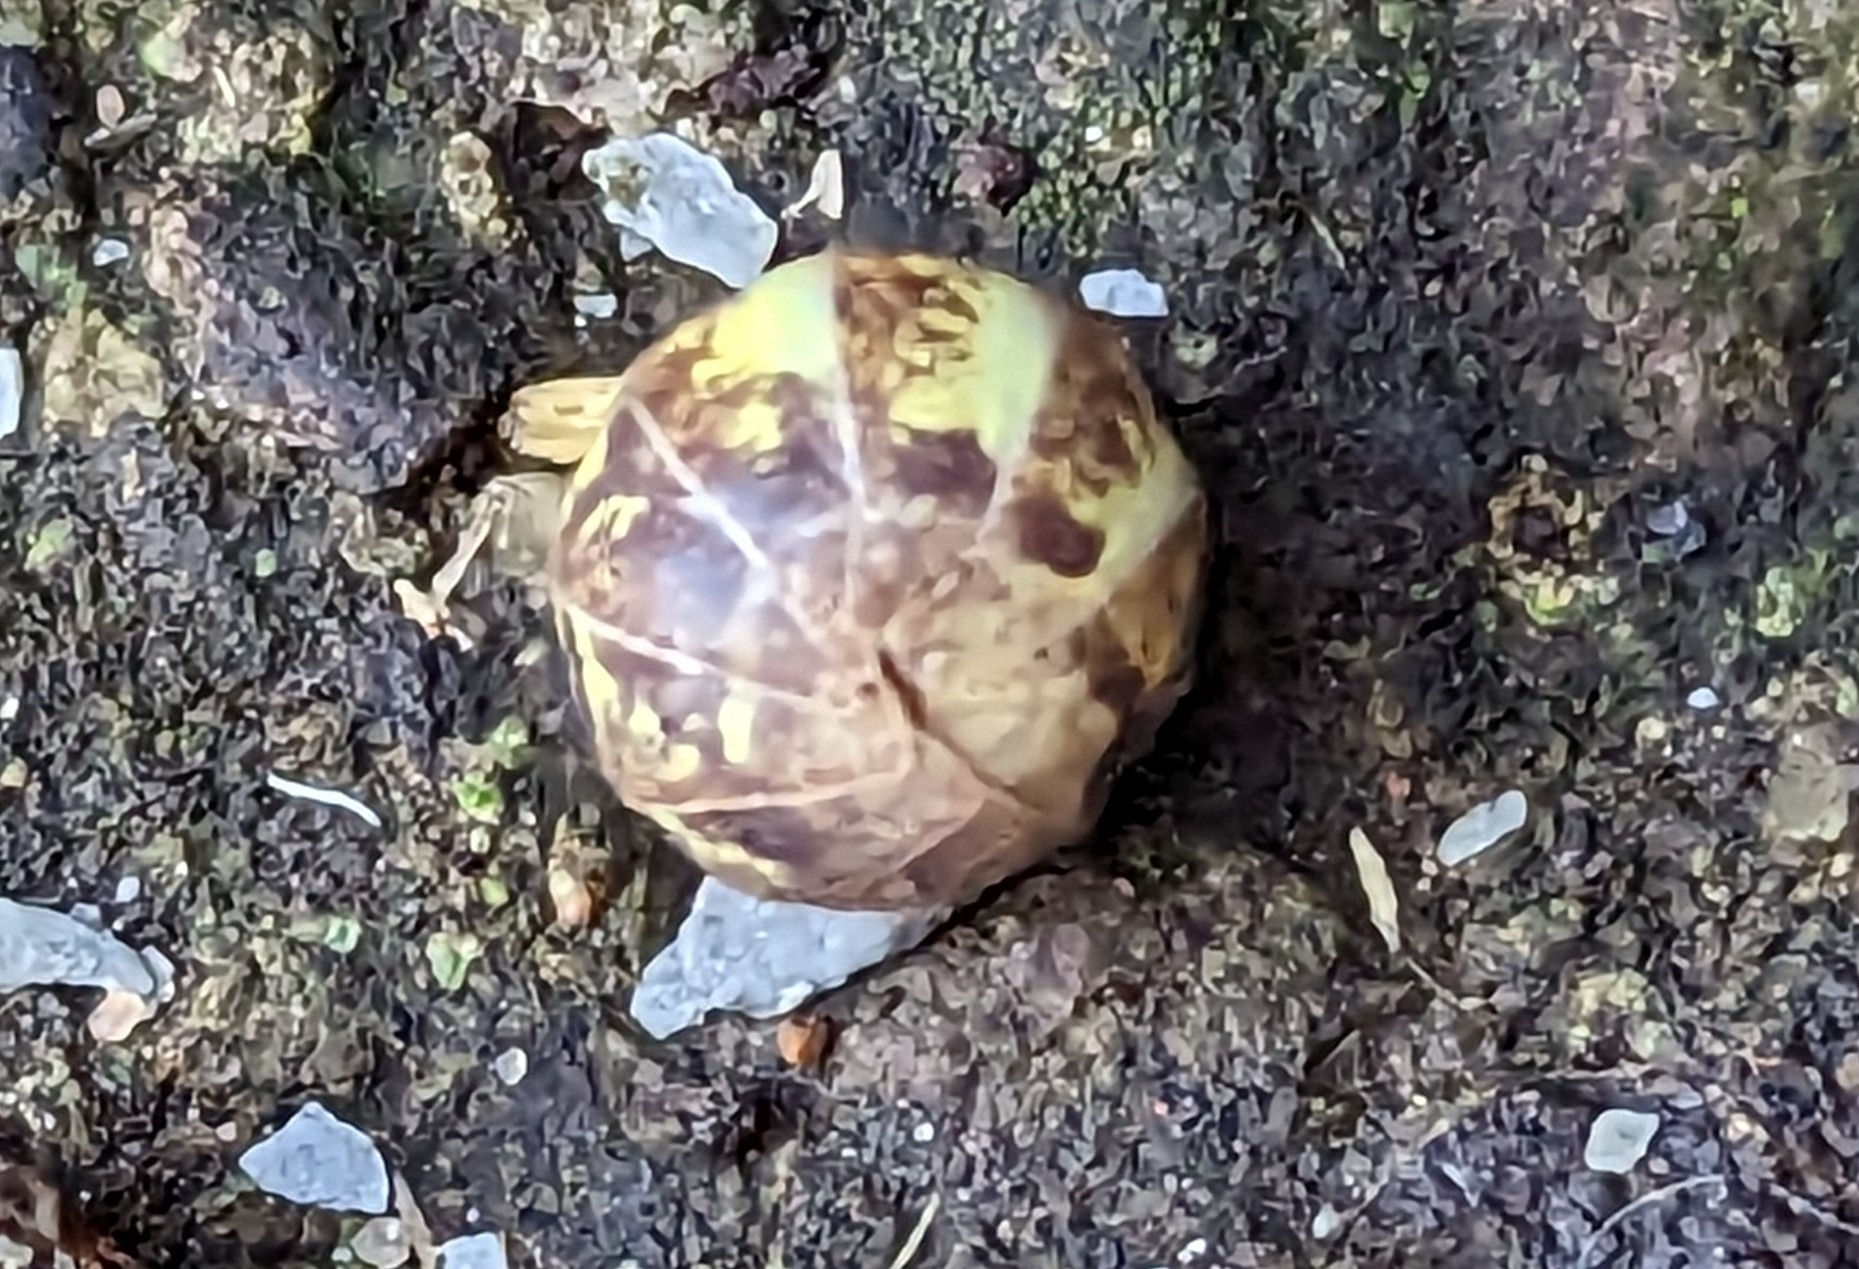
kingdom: Animalia
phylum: Arthropoda
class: Malacostraca
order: Isopoda
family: Armadillidiidae
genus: Armadillidium
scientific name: Armadillidium vulgare
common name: Common pill woodlouse
